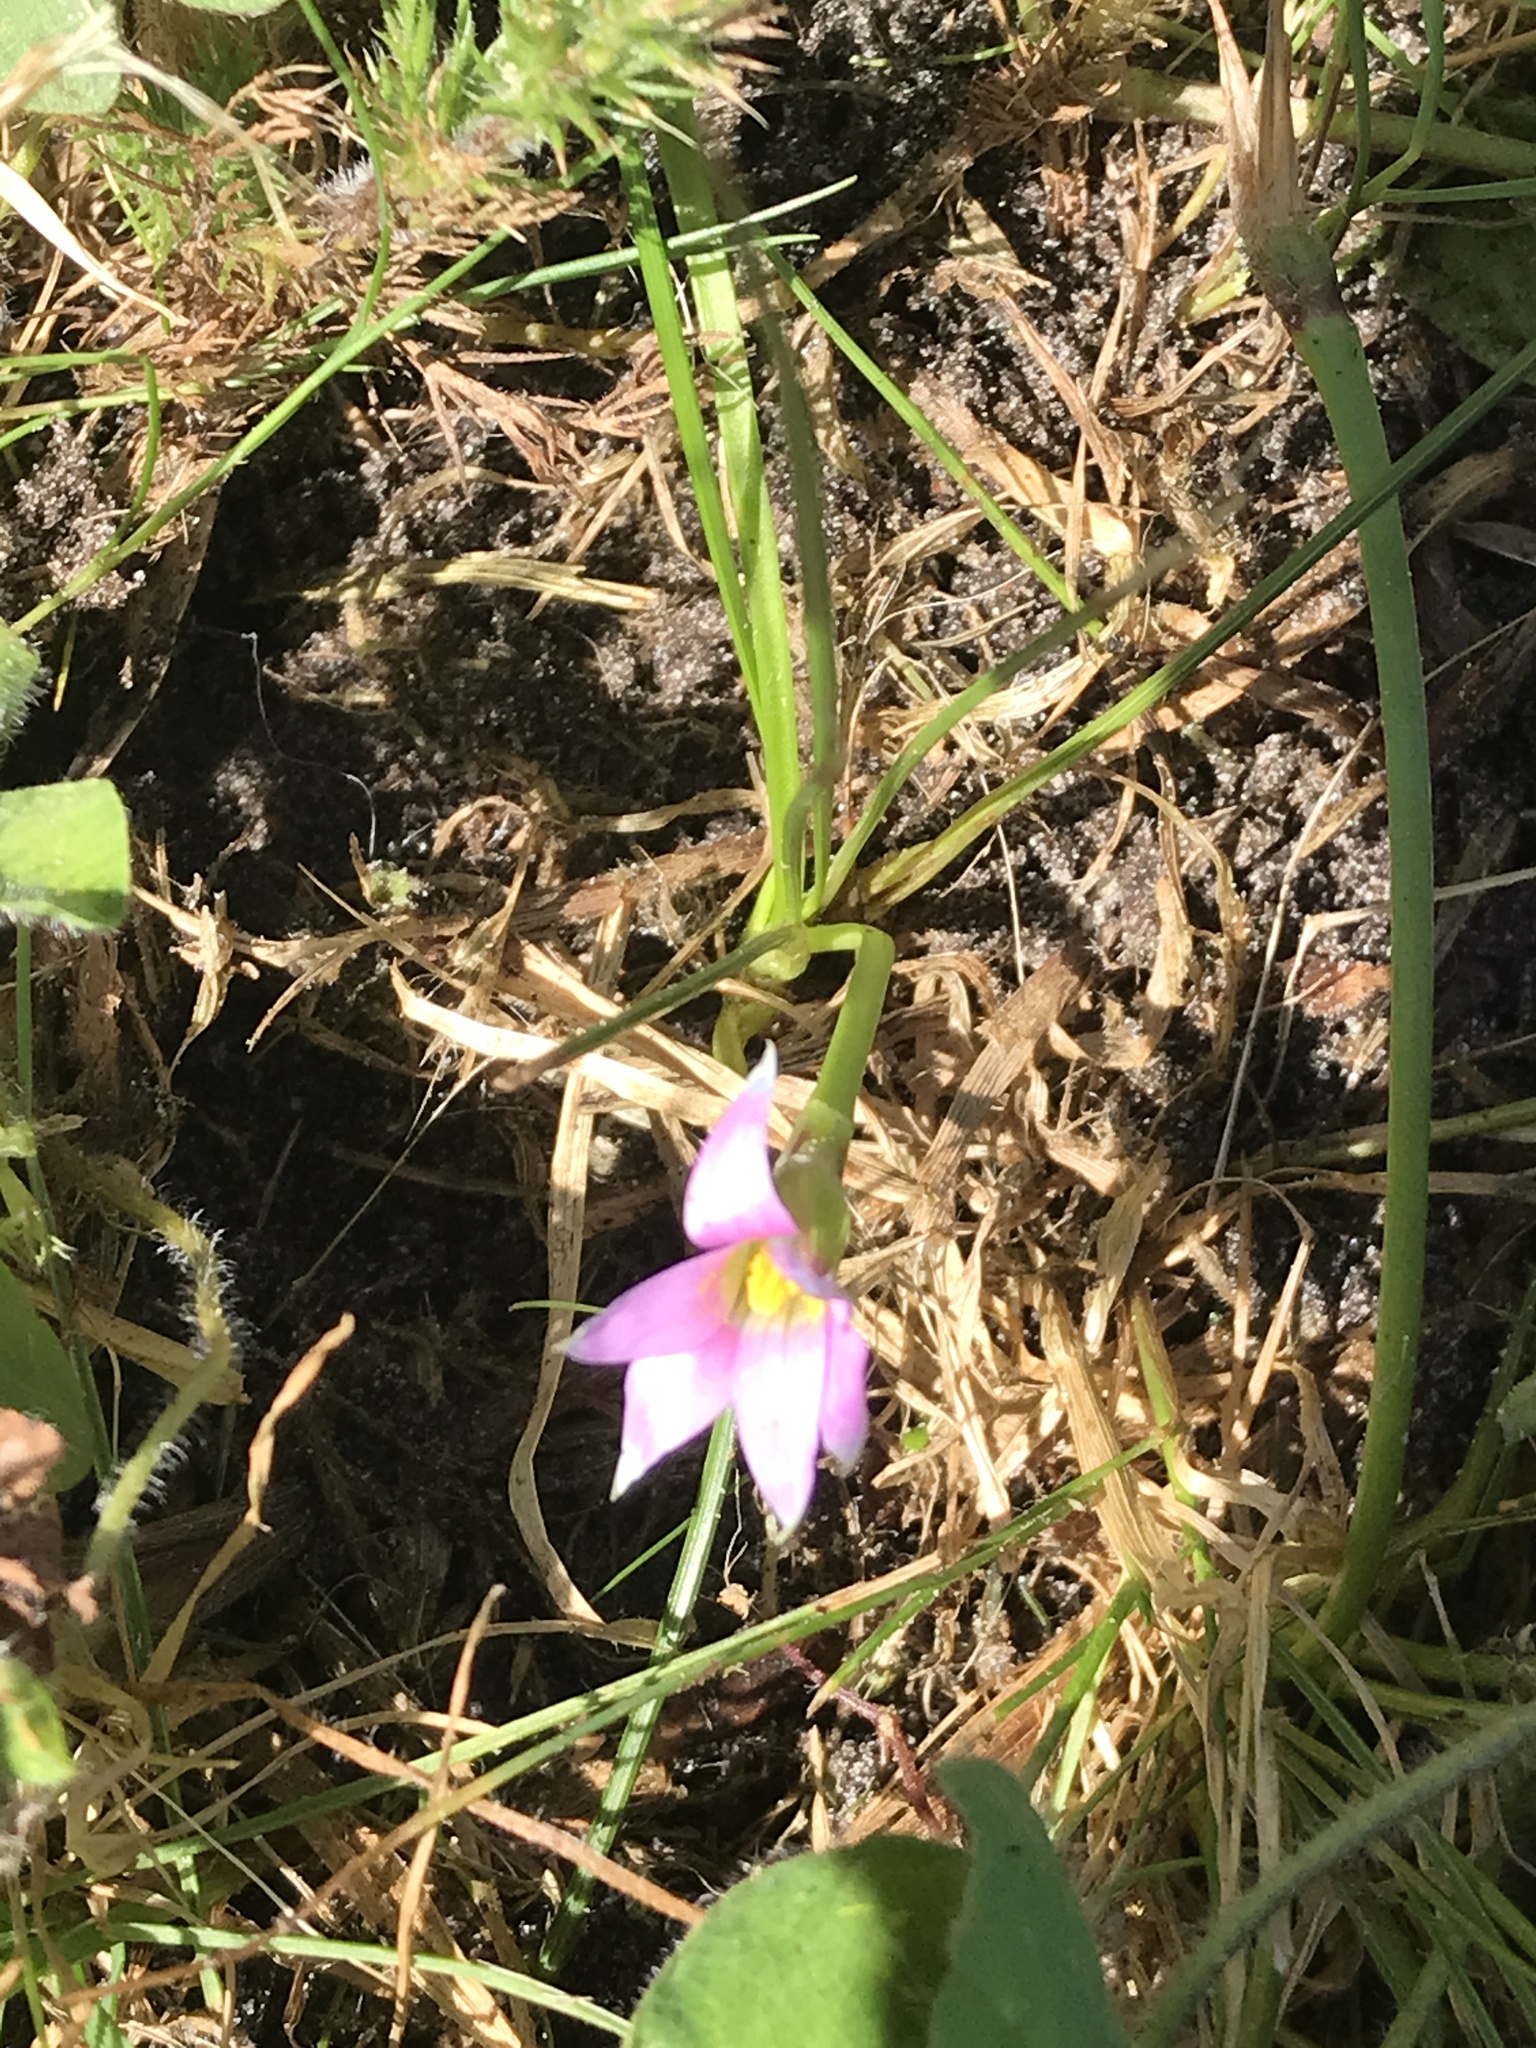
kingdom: Plantae
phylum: Tracheophyta
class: Liliopsida
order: Asparagales
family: Iridaceae
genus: Romulea
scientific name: Romulea rosea
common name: Oniongrass
